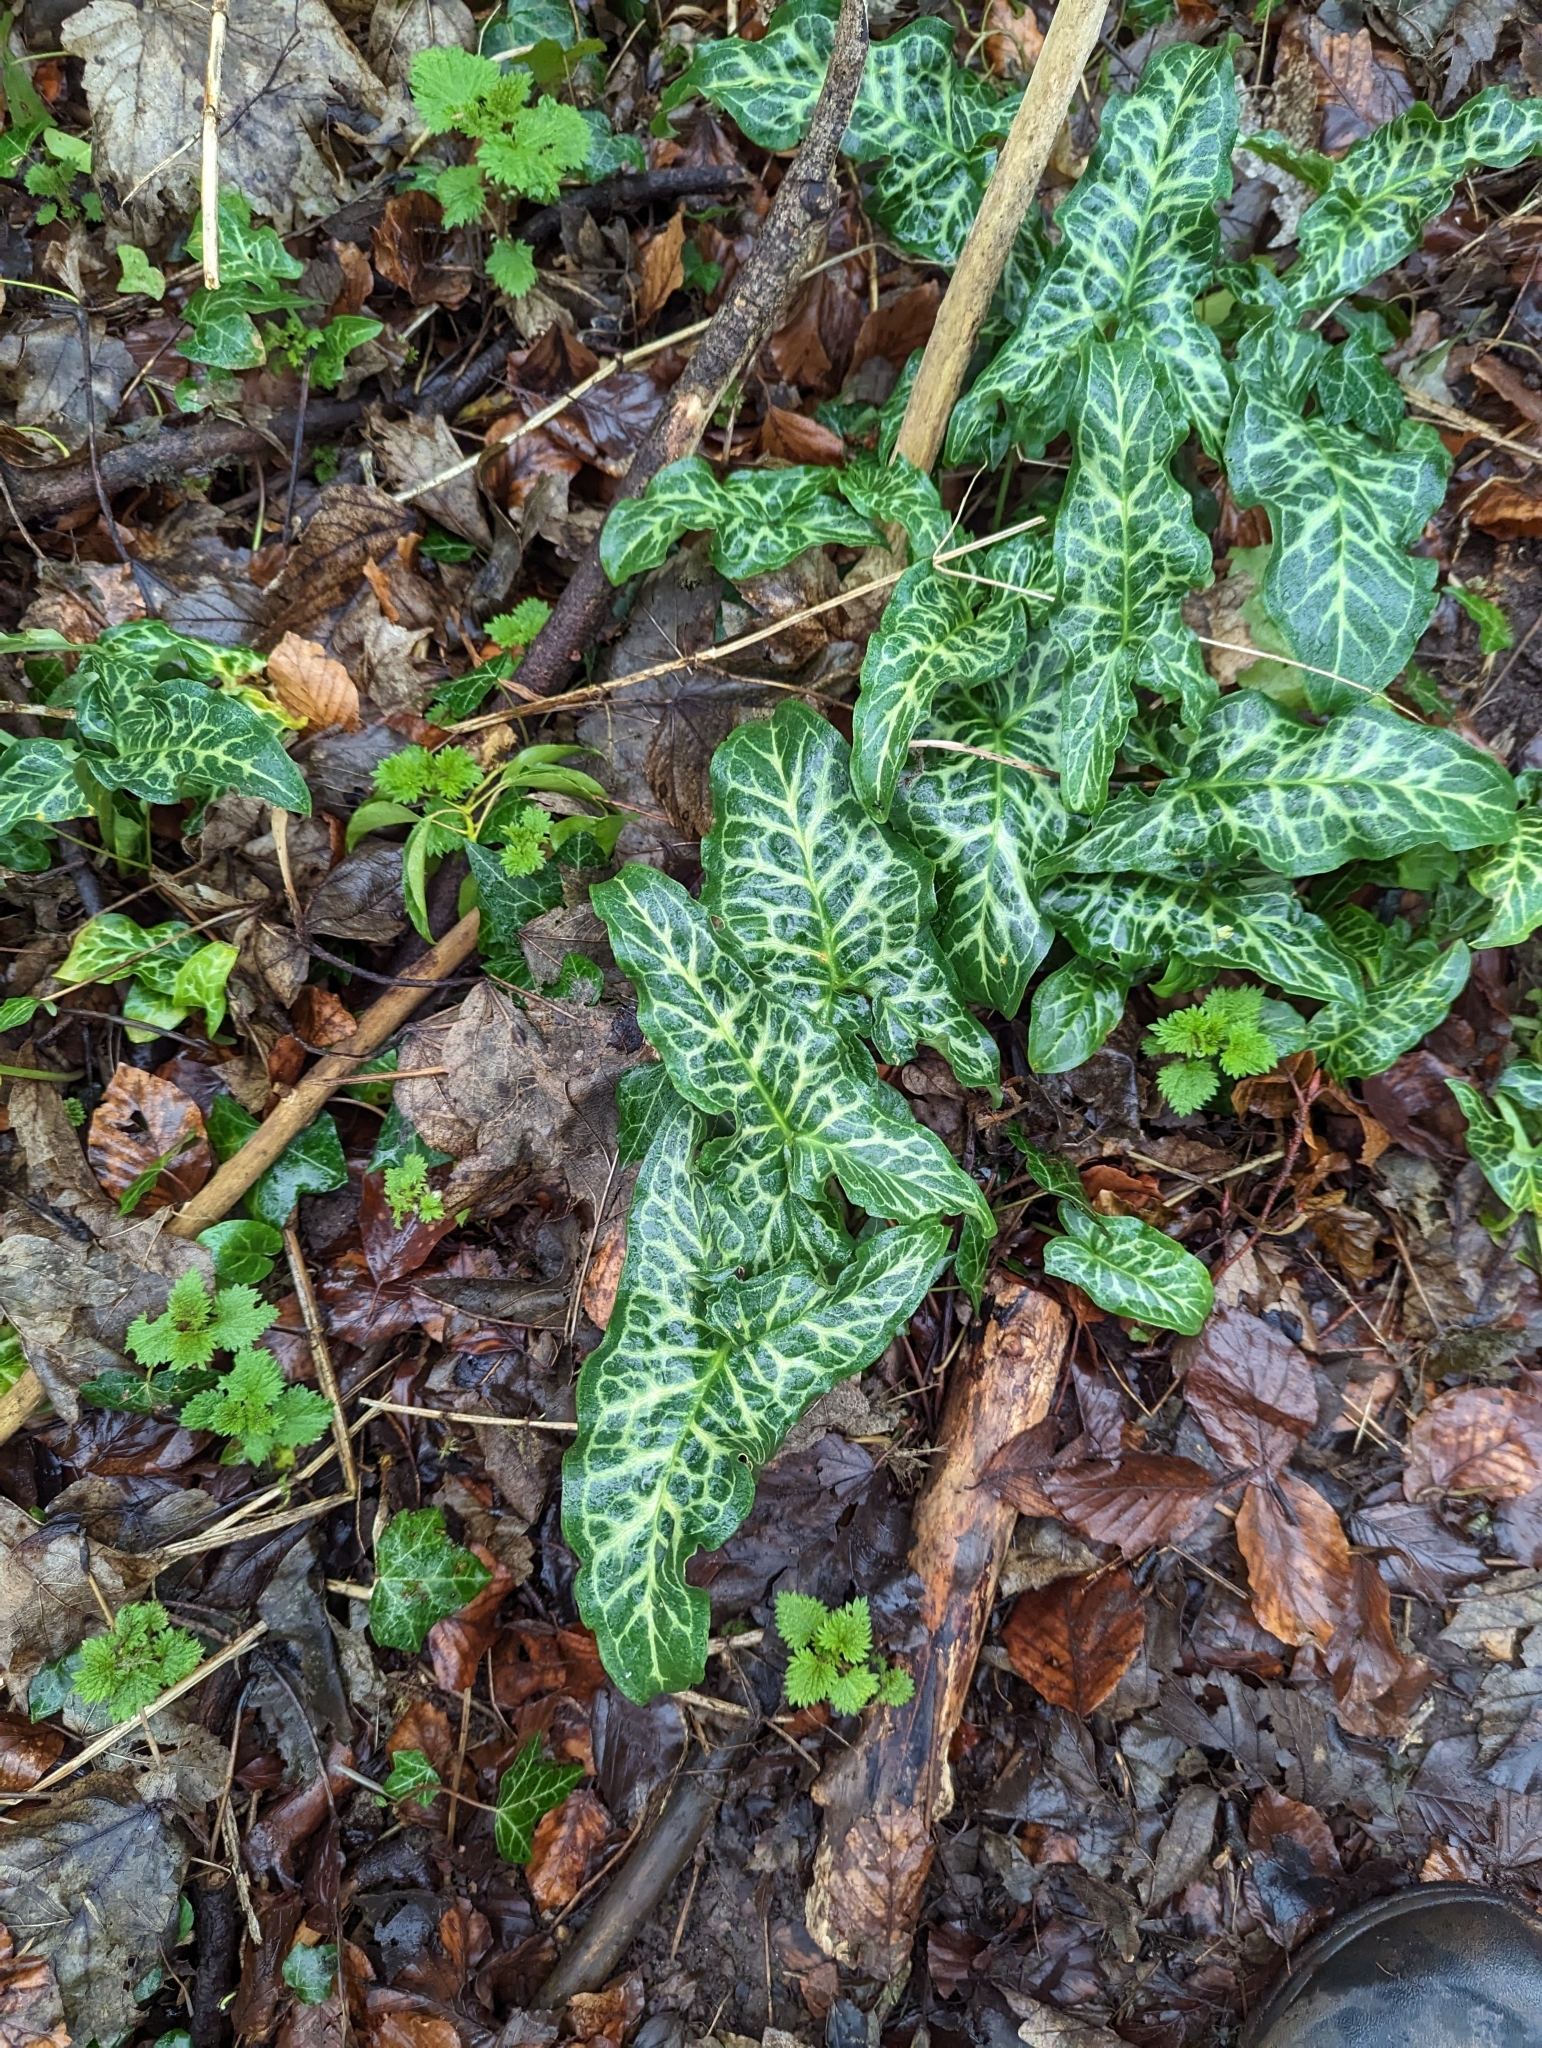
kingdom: Plantae
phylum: Tracheophyta
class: Liliopsida
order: Alismatales
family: Araceae
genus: Arum
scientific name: Arum italicum
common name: Italian lords-and-ladies
